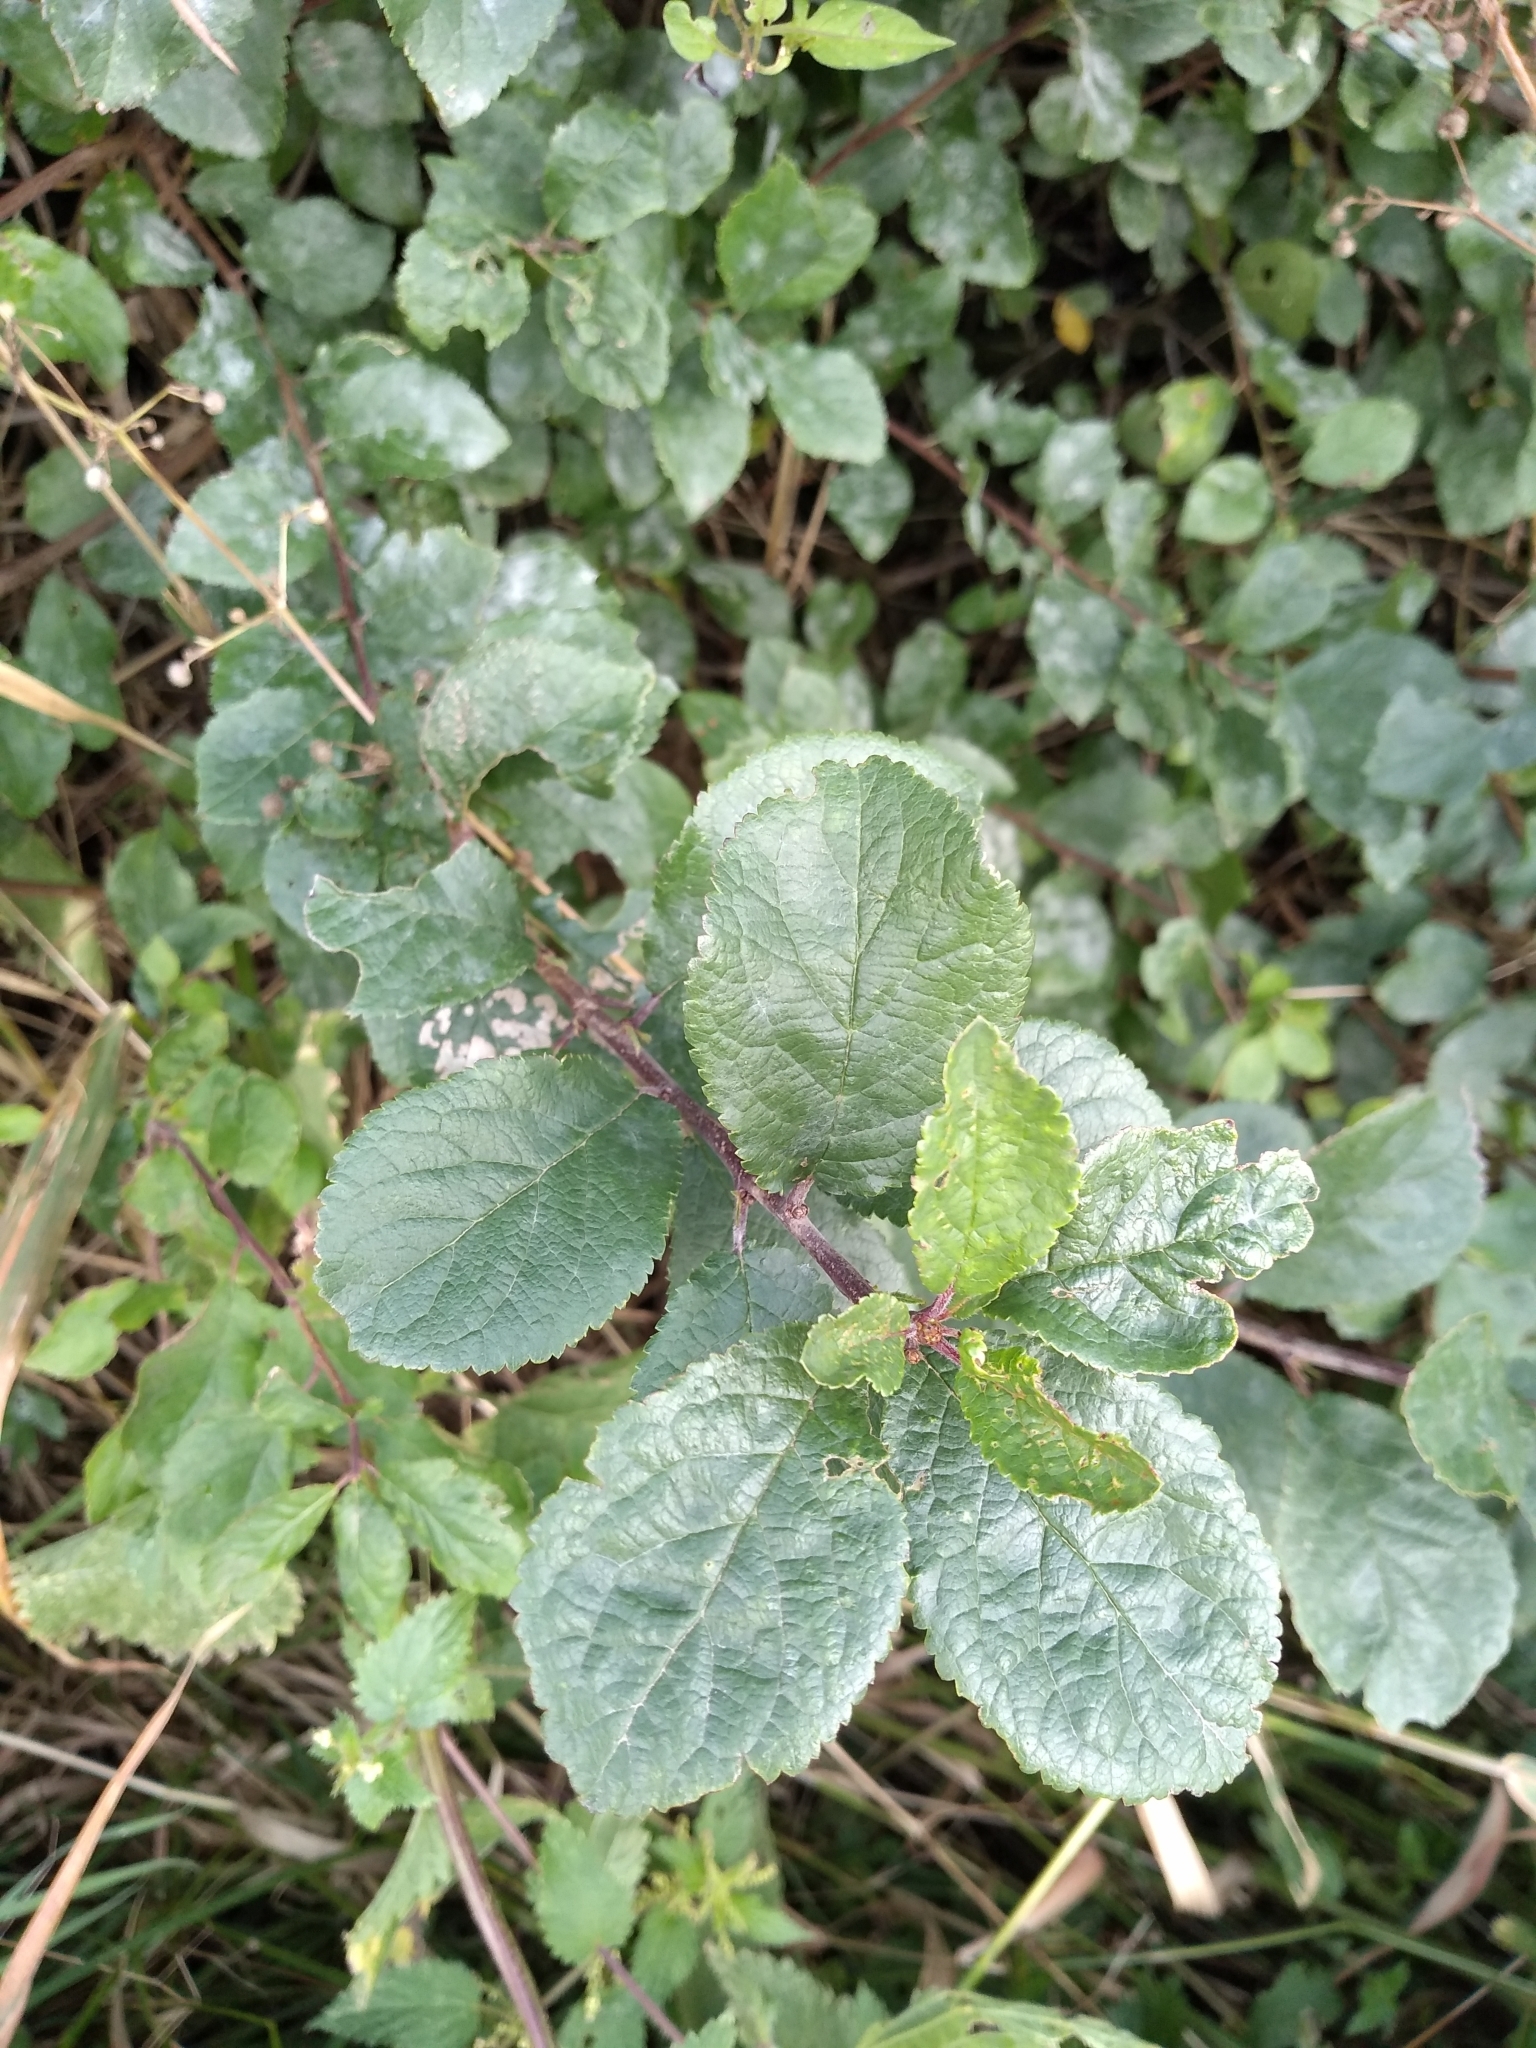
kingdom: Plantae
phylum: Tracheophyta
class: Magnoliopsida
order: Rosales
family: Rosaceae
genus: Prunus
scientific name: Prunus spinosa
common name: Blackthorn
